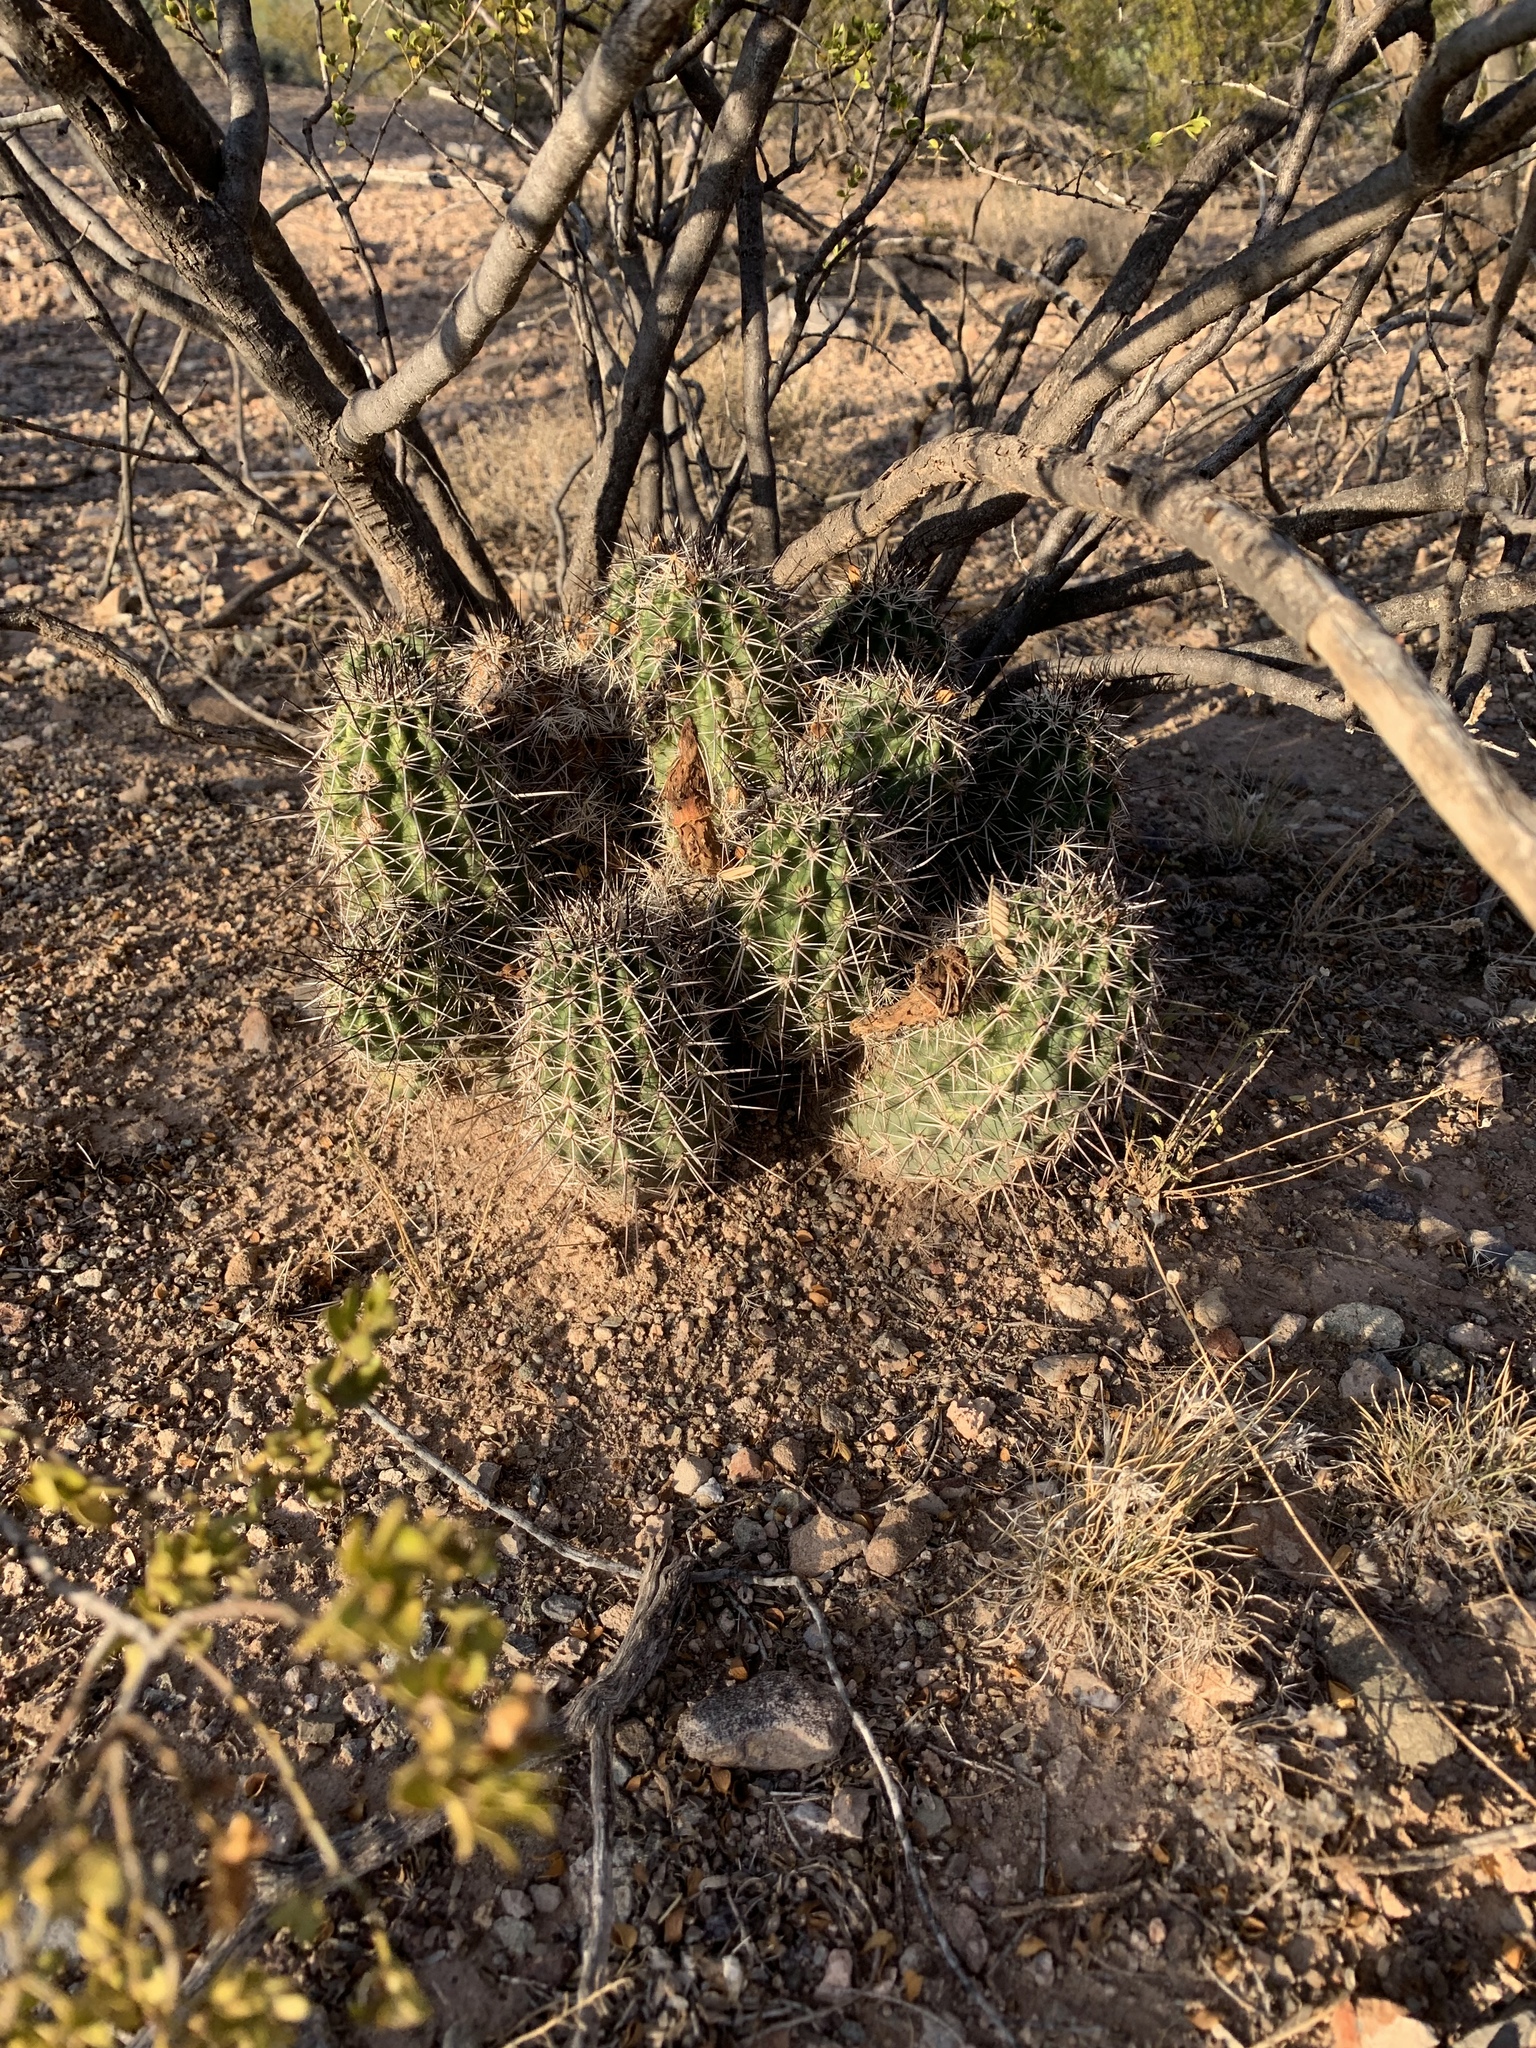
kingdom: Plantae
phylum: Tracheophyta
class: Magnoliopsida
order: Caryophyllales
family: Cactaceae
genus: Echinocereus
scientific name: Echinocereus fasciculatus
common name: Bundle hedgehog
